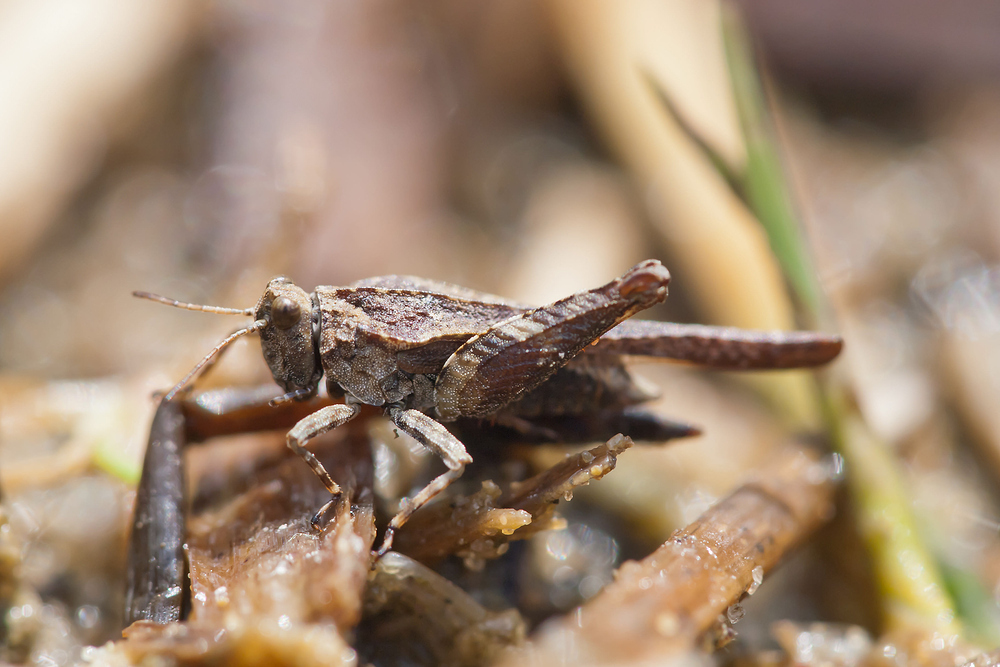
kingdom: Animalia
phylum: Arthropoda
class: Insecta
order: Orthoptera
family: Tetrigidae
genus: Tetrix
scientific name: Tetrix ceperoi
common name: Cepero's ground-hopper
